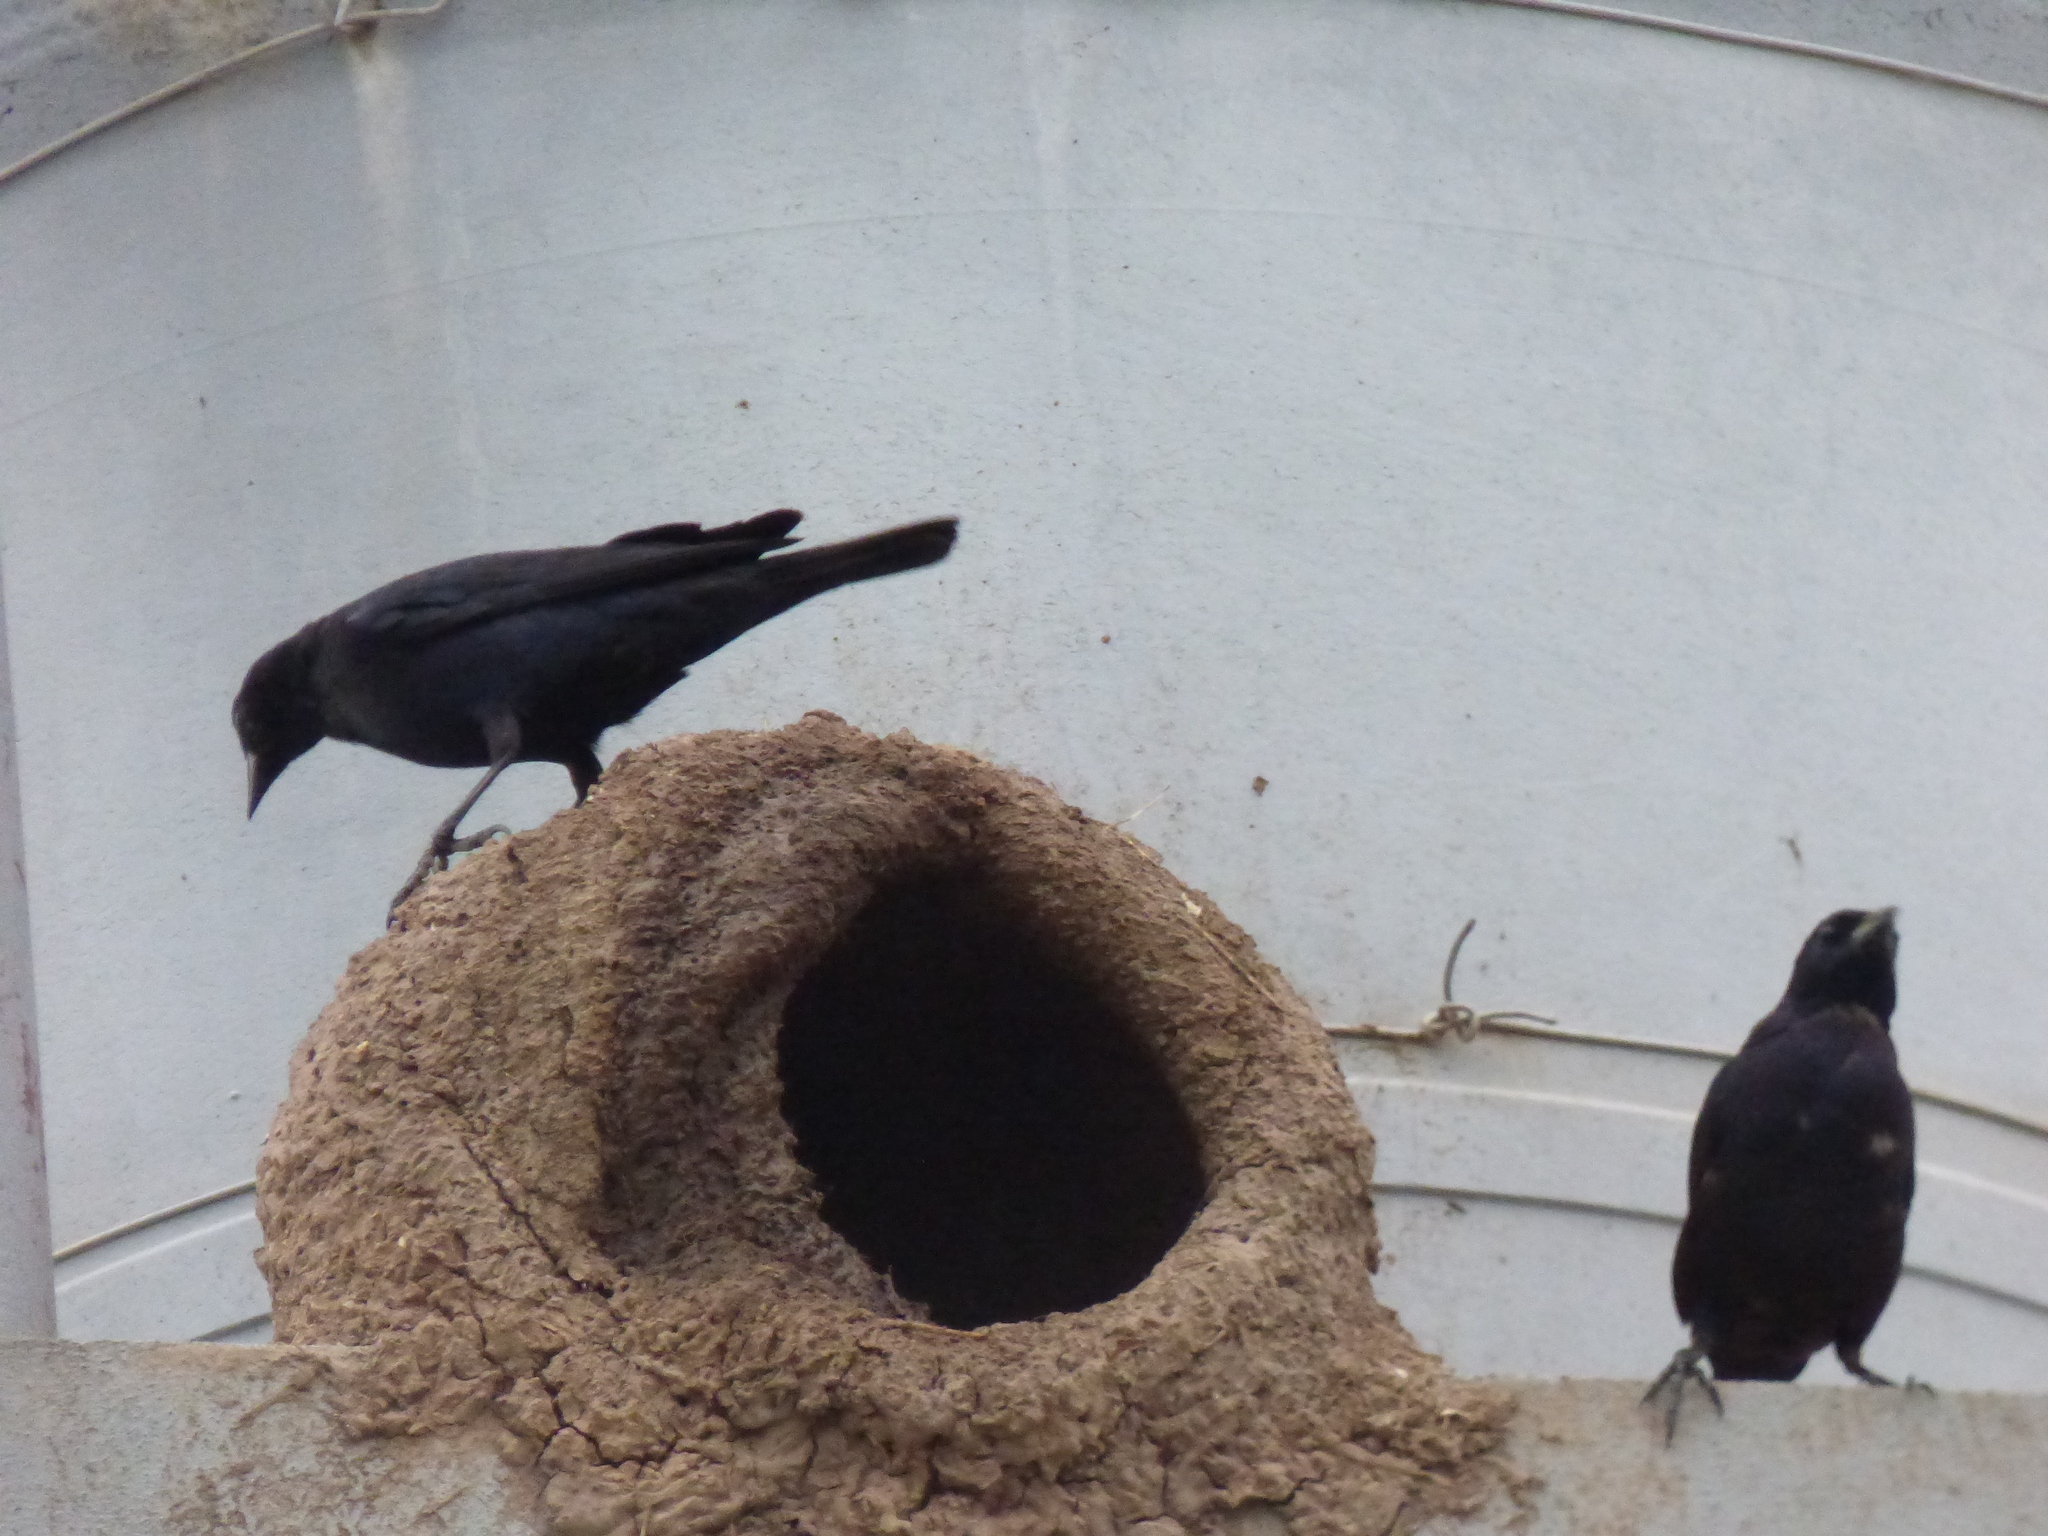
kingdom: Animalia
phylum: Chordata
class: Aves
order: Passeriformes
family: Icteridae
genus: Molothrus
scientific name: Molothrus bonariensis
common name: Shiny cowbird
